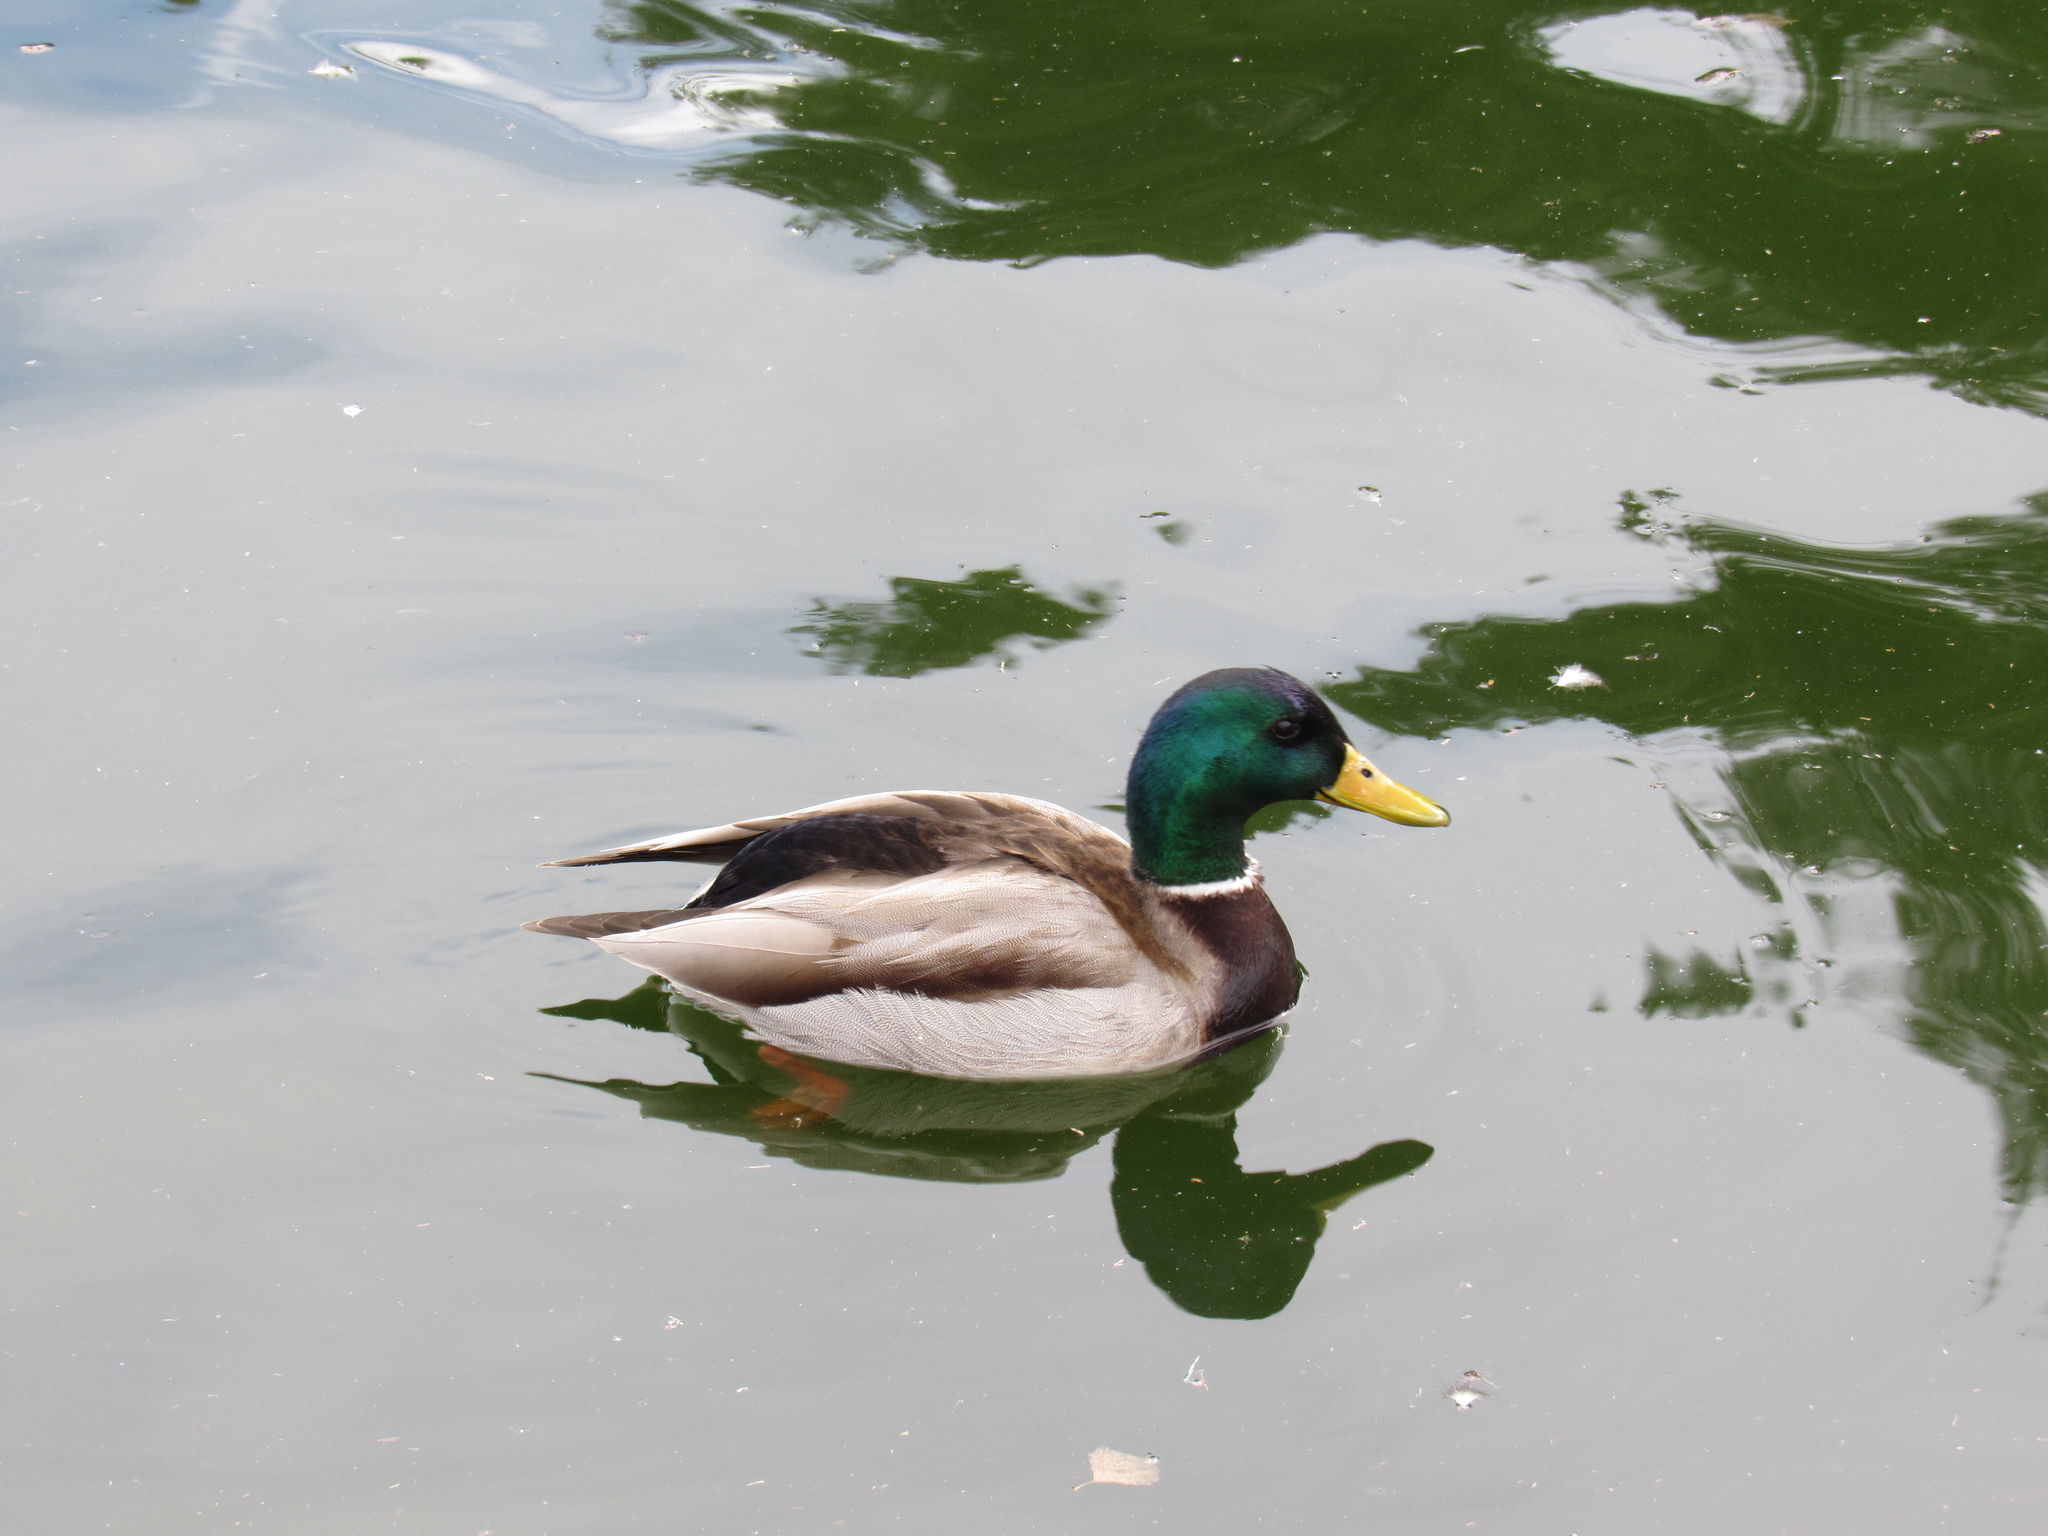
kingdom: Animalia
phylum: Chordata
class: Aves
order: Anseriformes
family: Anatidae
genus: Anas
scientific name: Anas platyrhynchos
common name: Mallard
